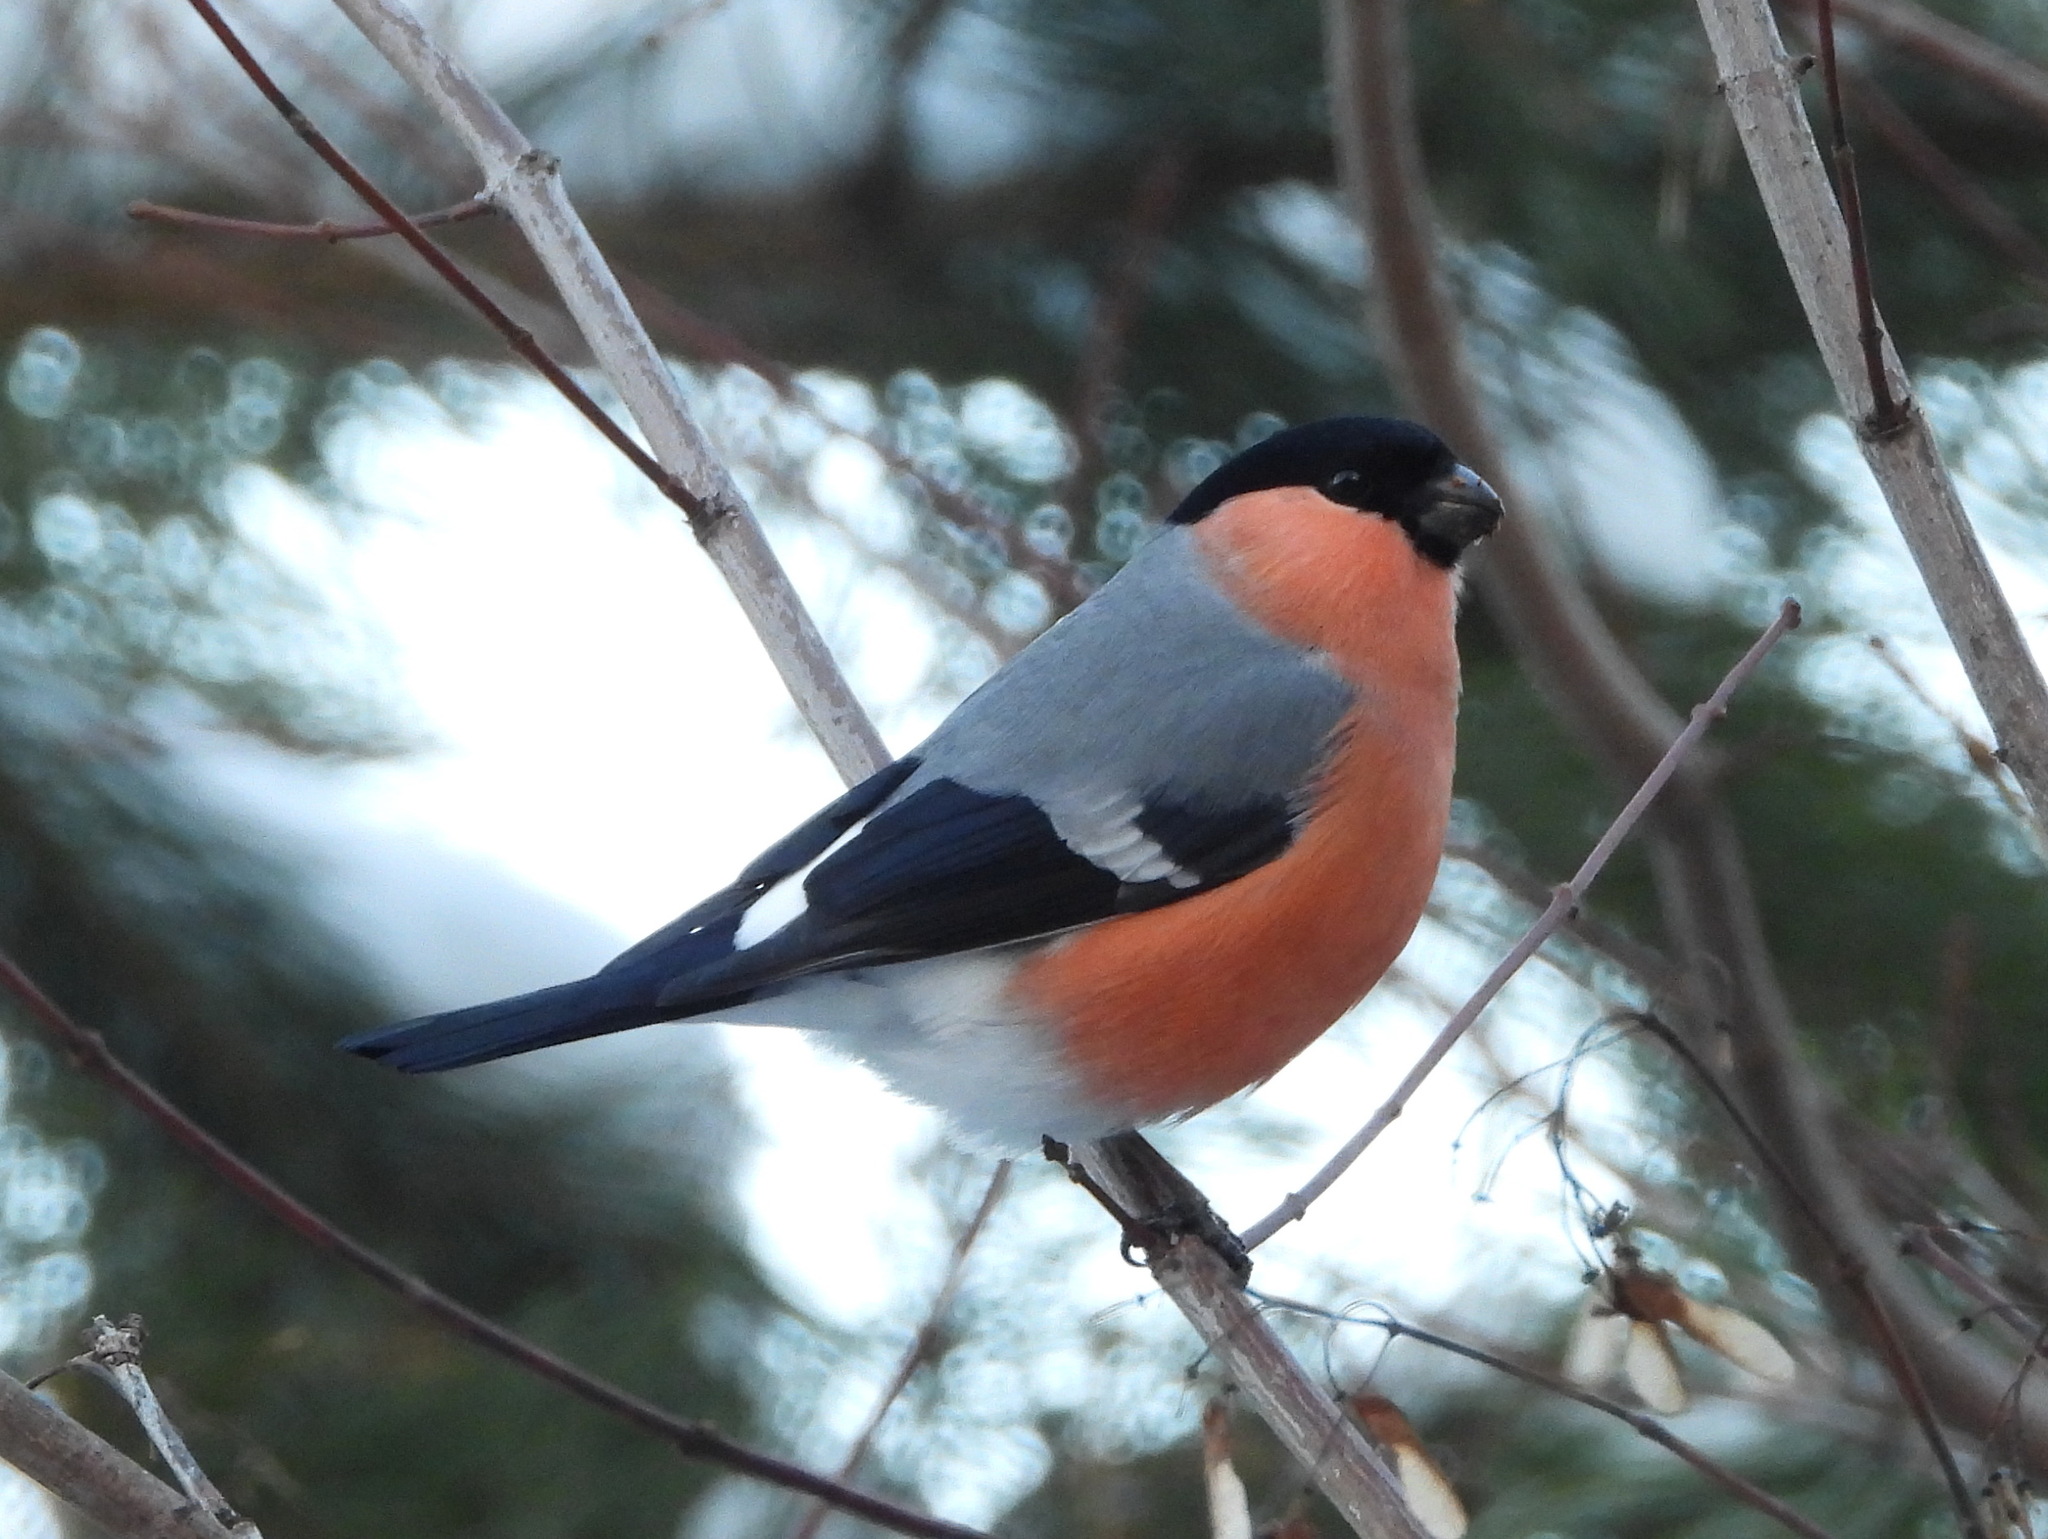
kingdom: Animalia
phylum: Chordata
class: Aves
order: Passeriformes
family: Fringillidae
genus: Pyrrhula
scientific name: Pyrrhula pyrrhula
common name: Eurasian bullfinch
